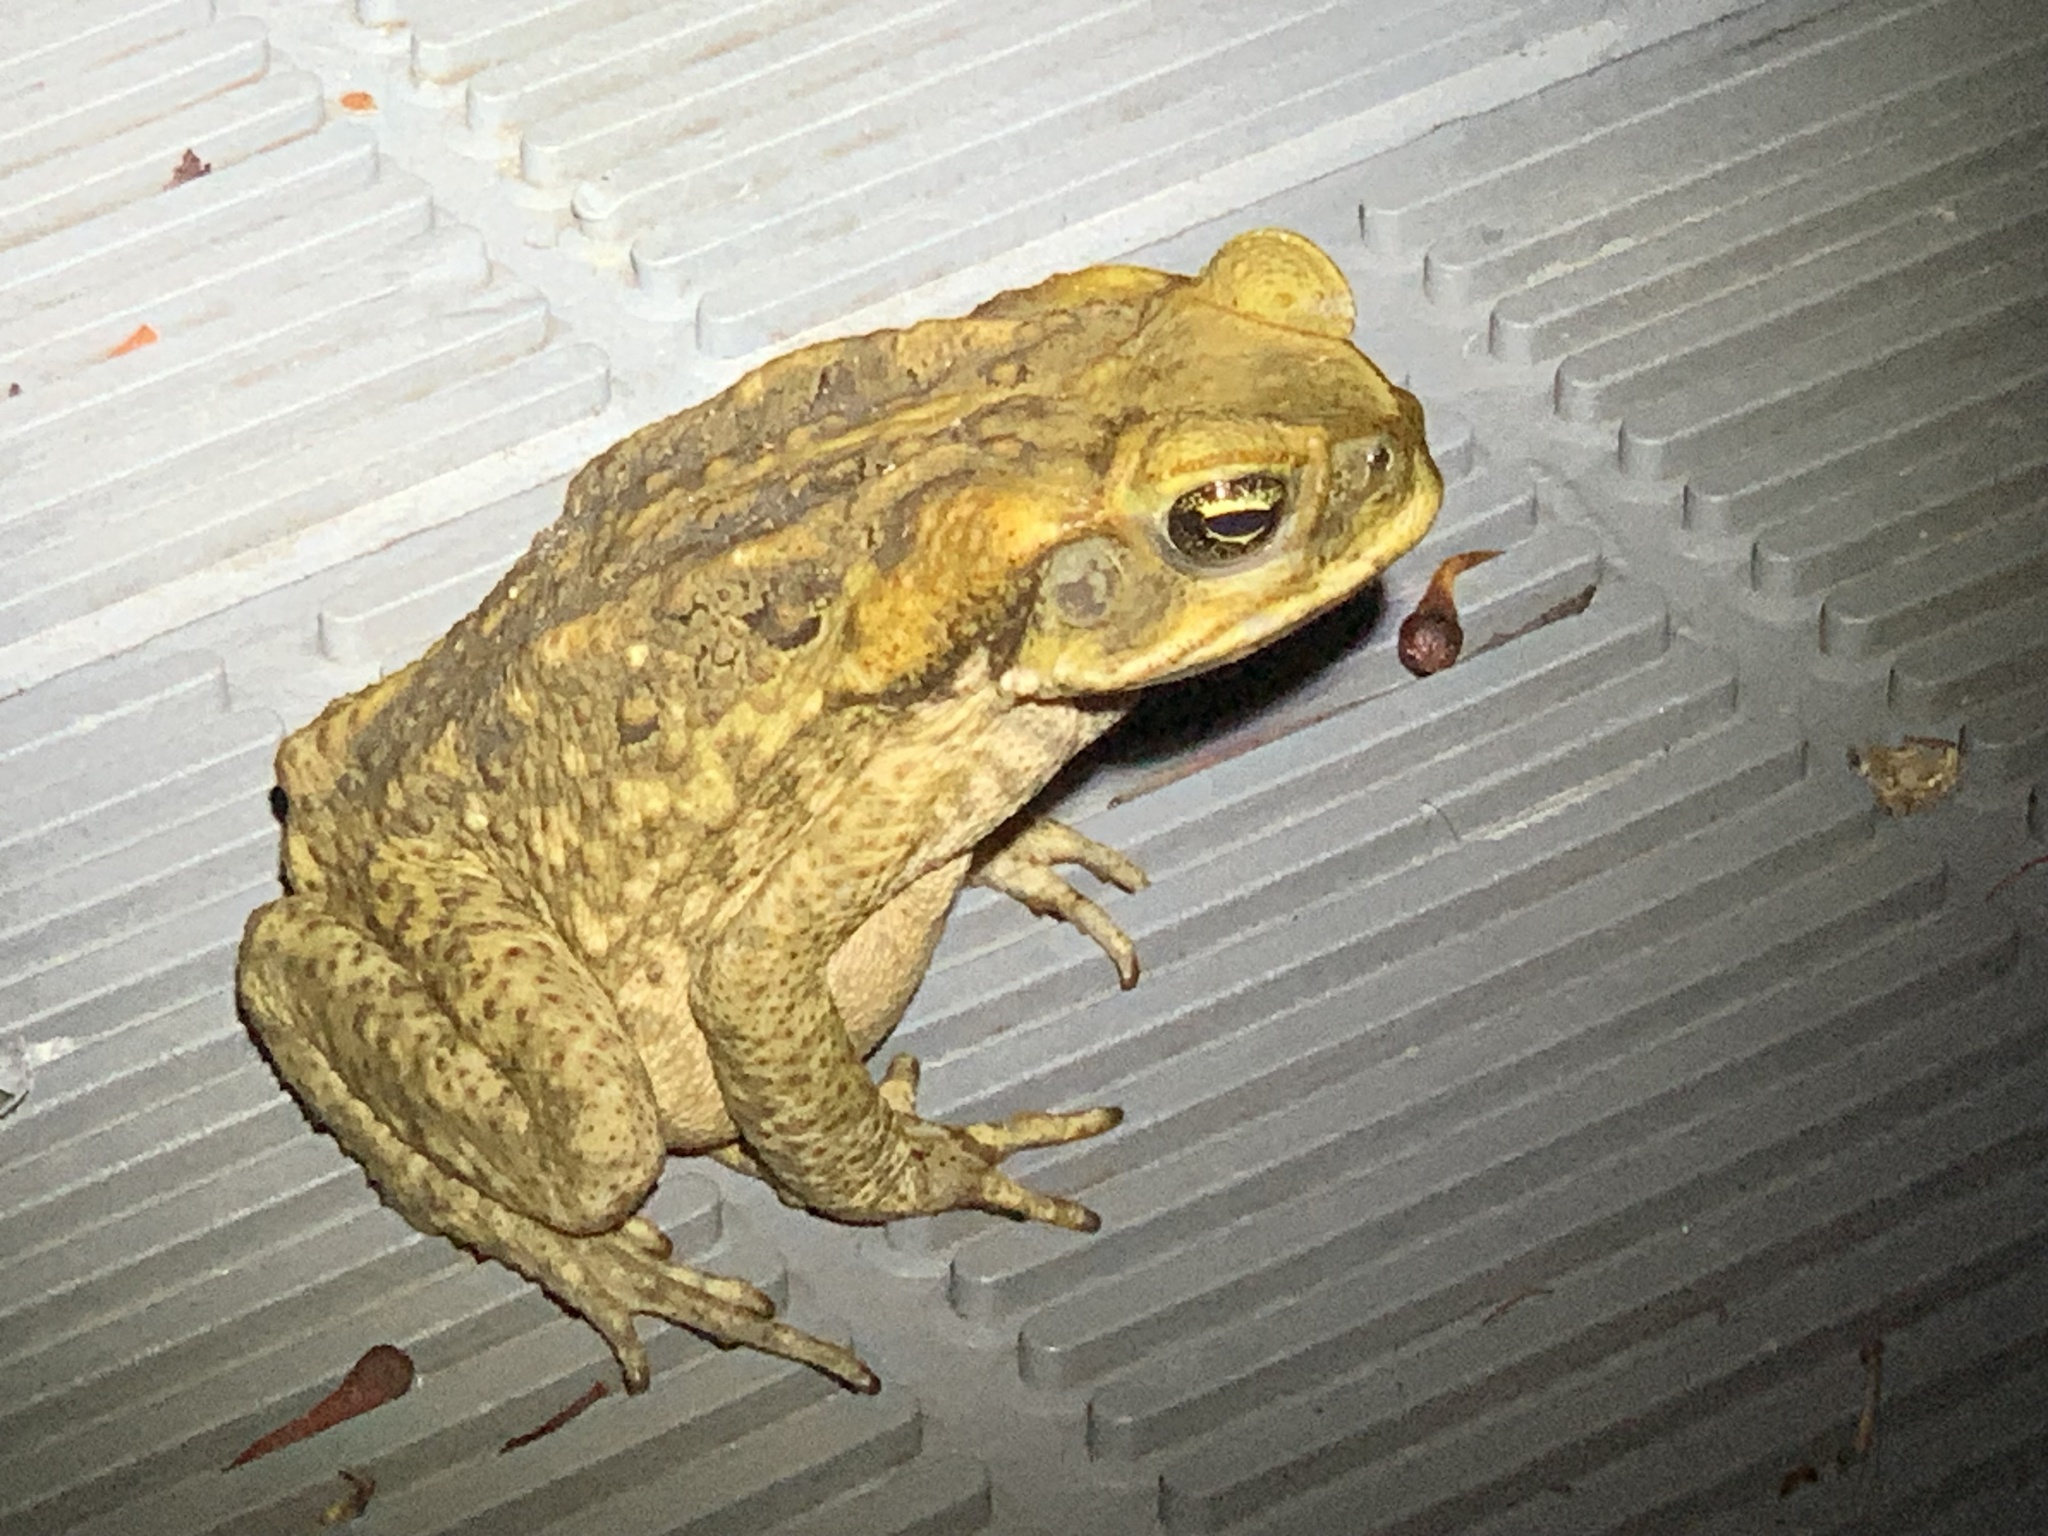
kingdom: Animalia
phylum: Chordata
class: Amphibia
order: Anura
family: Bufonidae
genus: Rhinella
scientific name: Rhinella marina
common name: Cane toad
